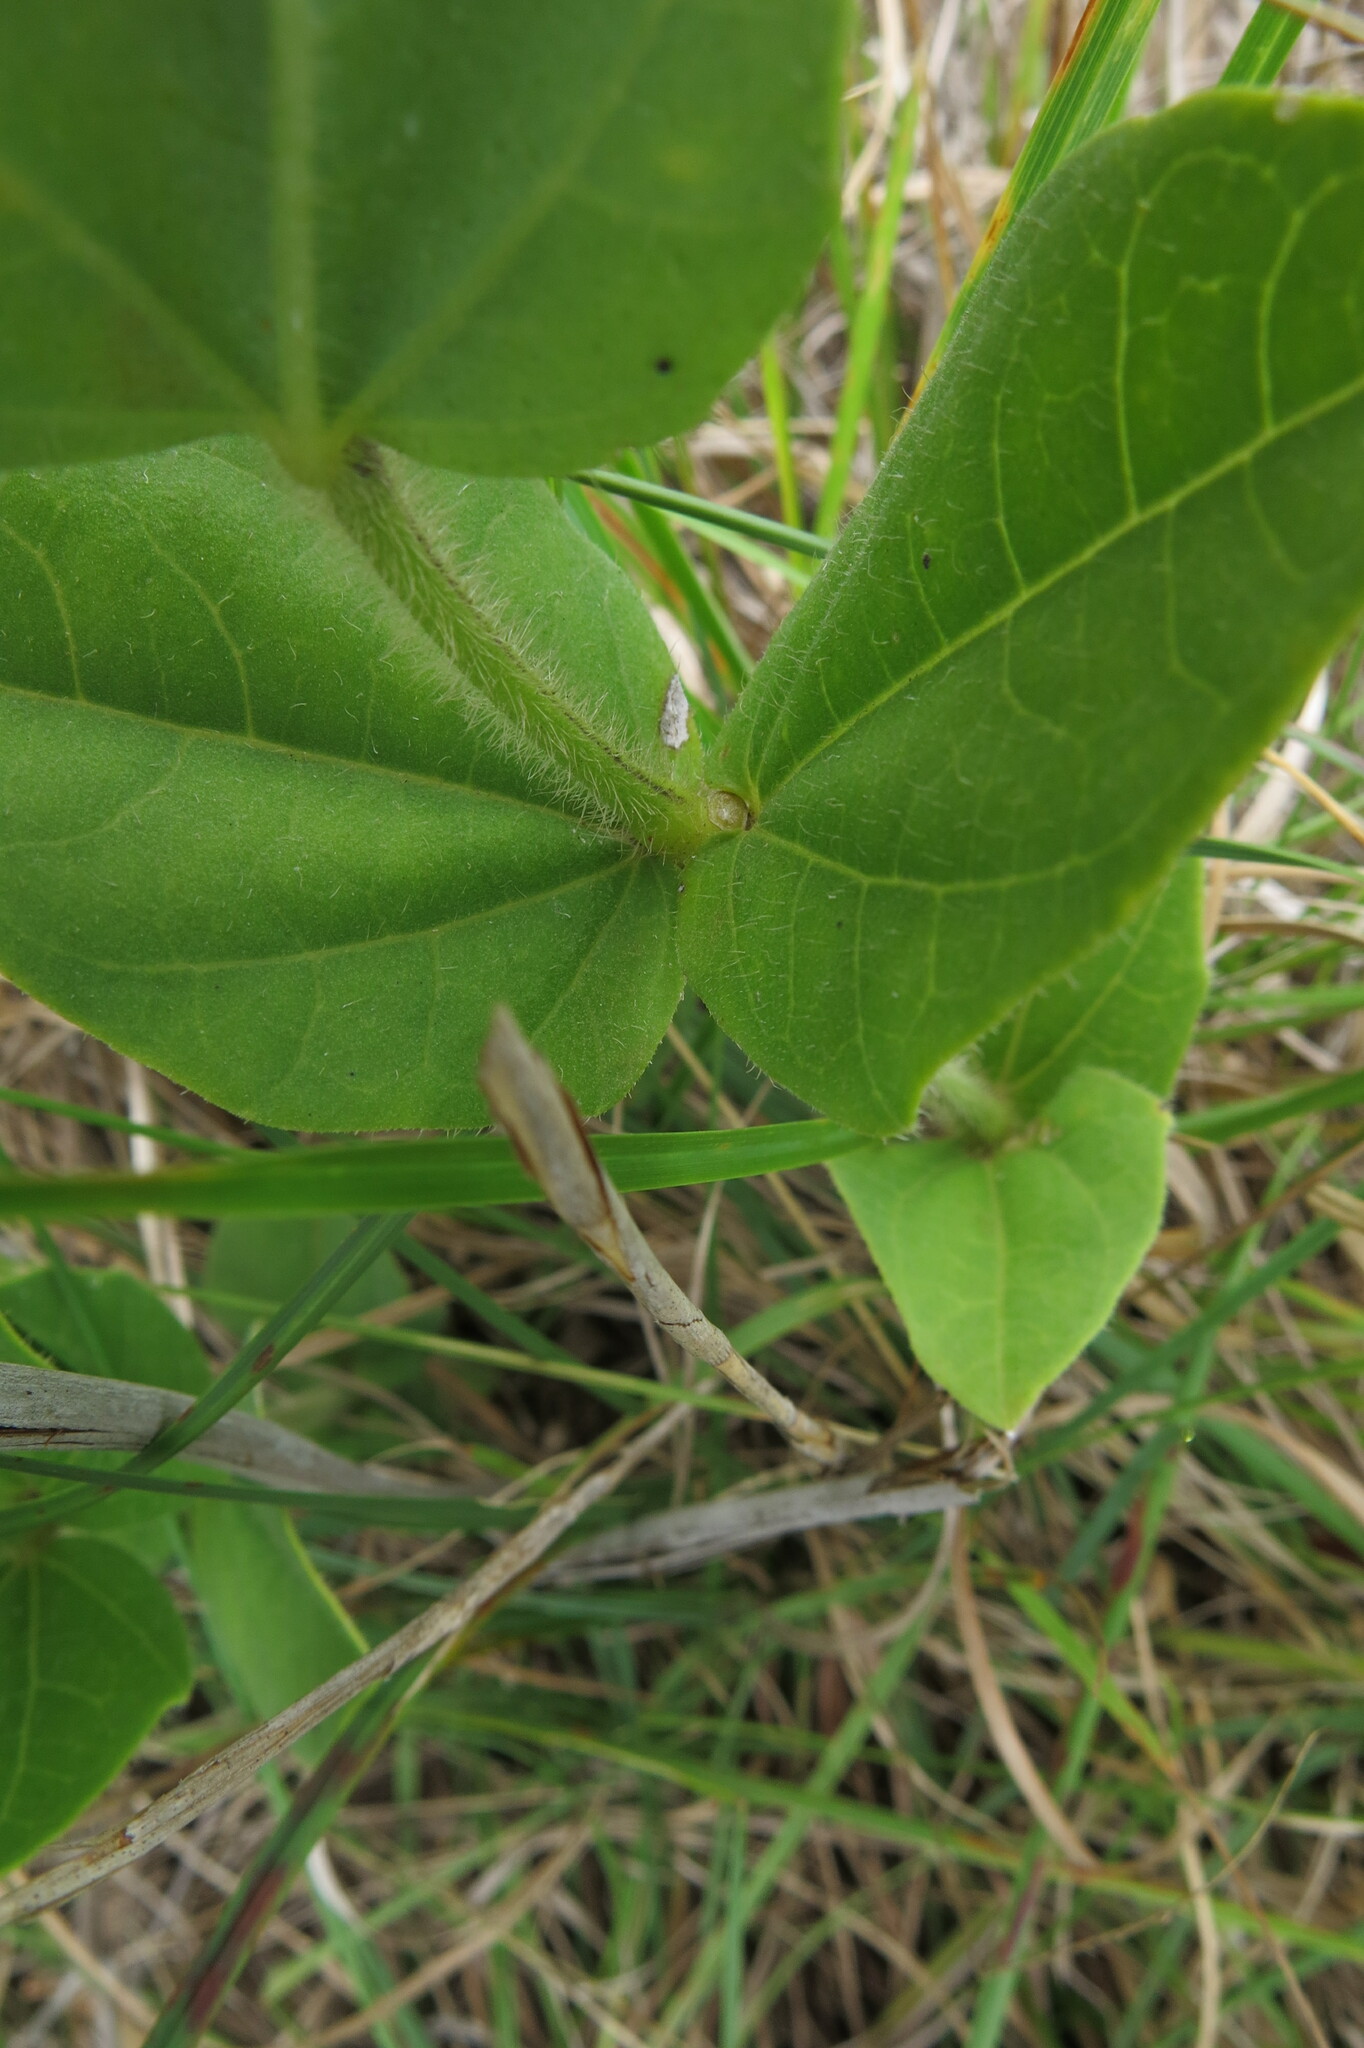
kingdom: Plantae
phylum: Tracheophyta
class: Magnoliopsida
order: Lamiales
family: Acanthaceae
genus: Thunbergia
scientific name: Thunbergia atriplicifolia
